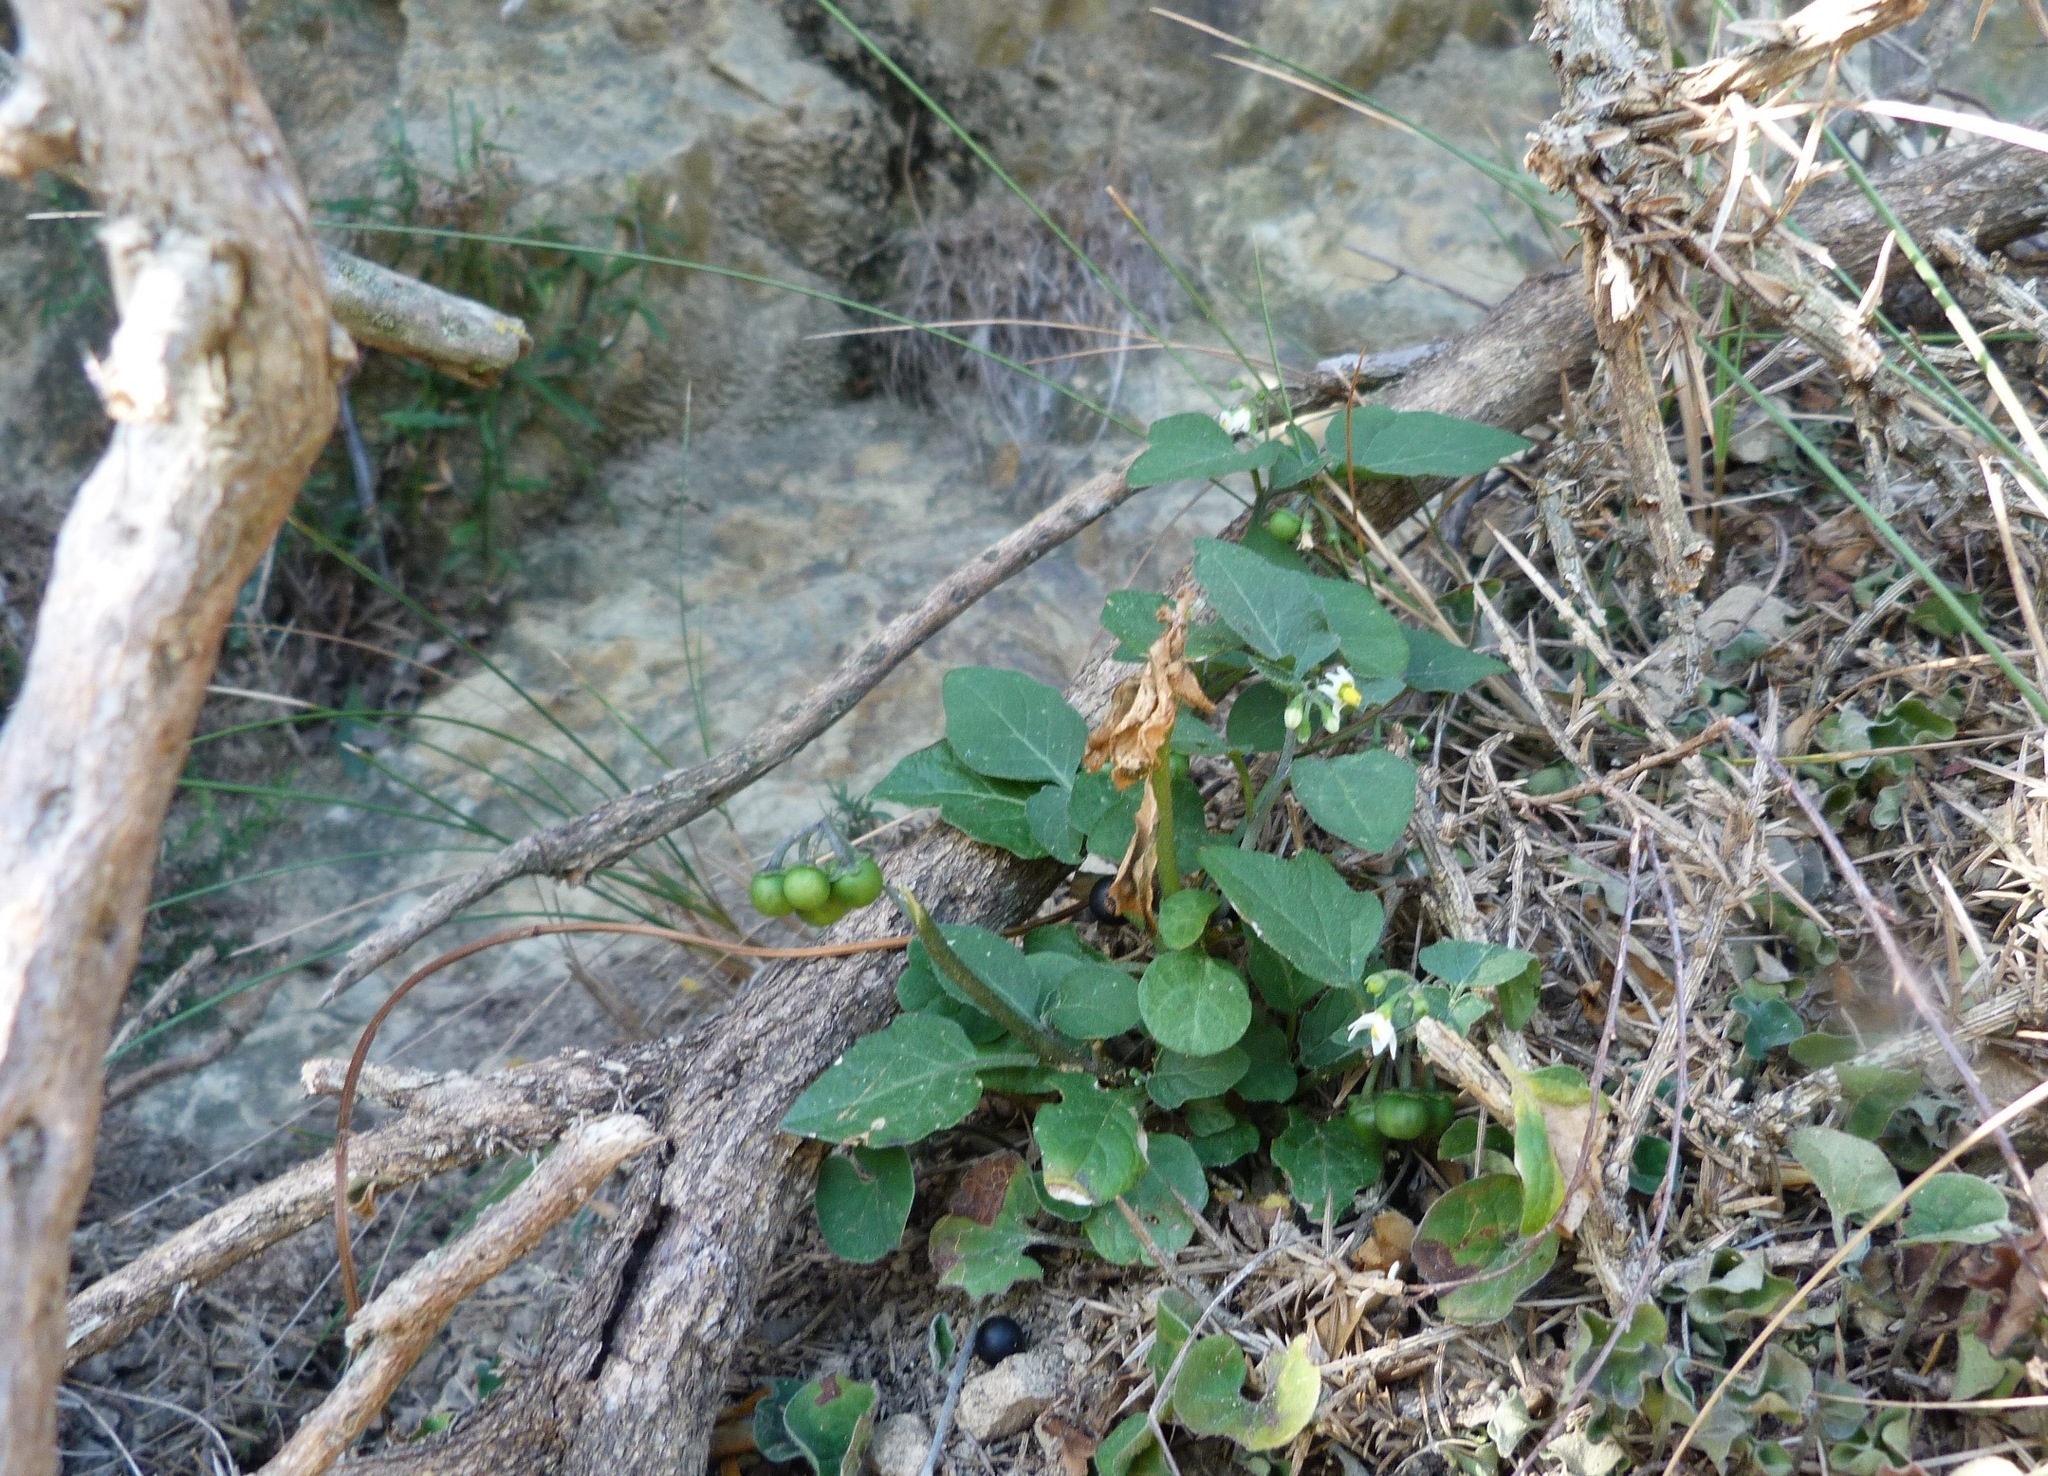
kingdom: Plantae
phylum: Tracheophyta
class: Magnoliopsida
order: Solanales
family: Solanaceae
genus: Solanum
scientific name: Solanum nigrum
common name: Black nightshade
